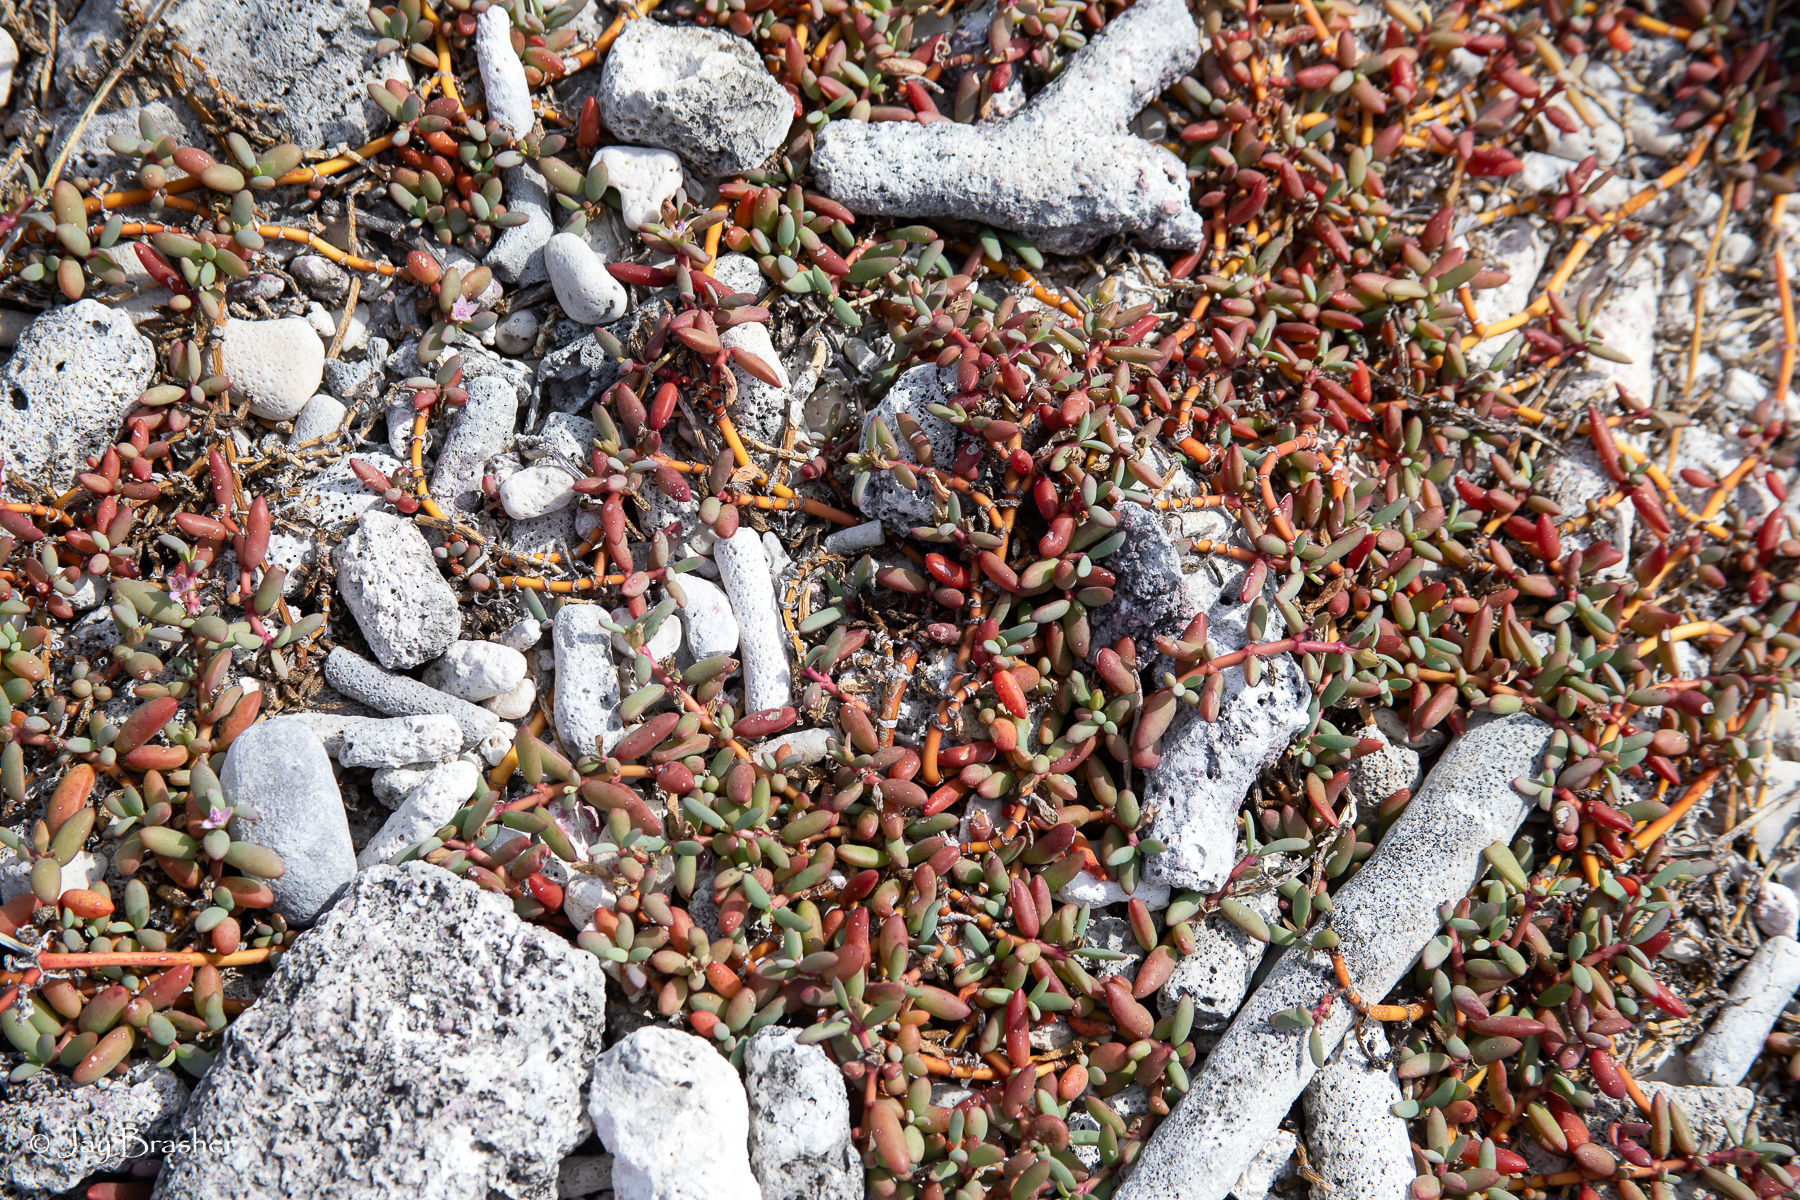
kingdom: Plantae
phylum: Tracheophyta
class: Magnoliopsida
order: Caryophyllales
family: Aizoaceae
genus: Sesuvium
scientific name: Sesuvium portulacastrum
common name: Sea-purslane
